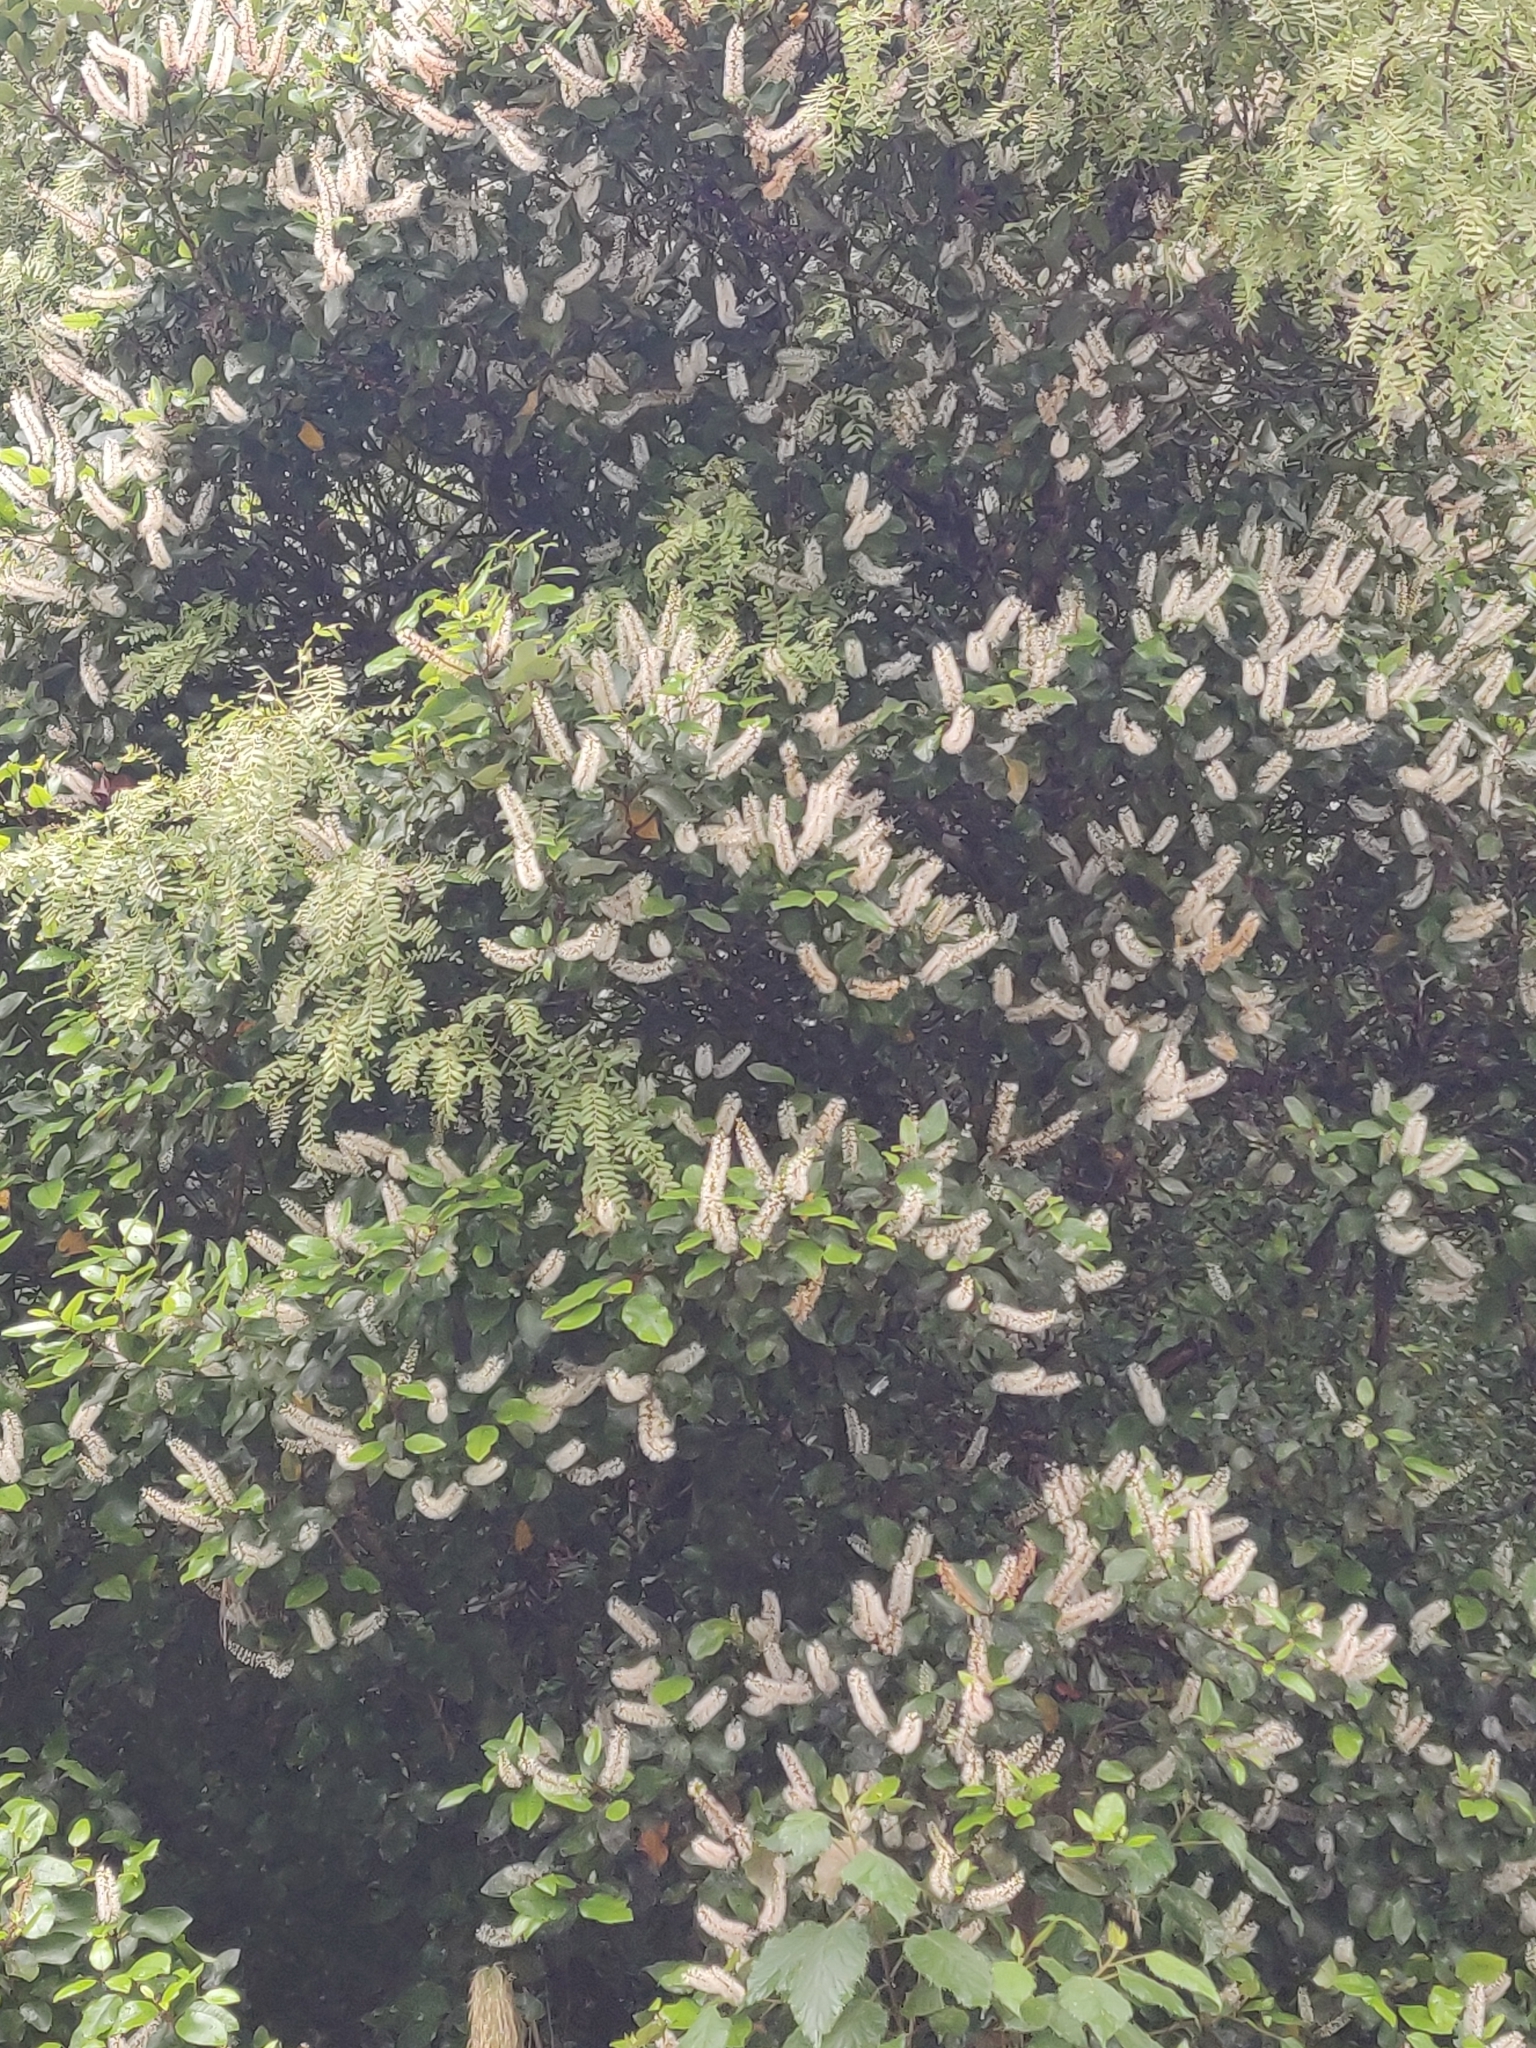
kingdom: Plantae
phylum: Tracheophyta
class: Magnoliopsida
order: Oxalidales
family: Cunoniaceae
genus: Pterophylla
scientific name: Pterophylla racemosa
